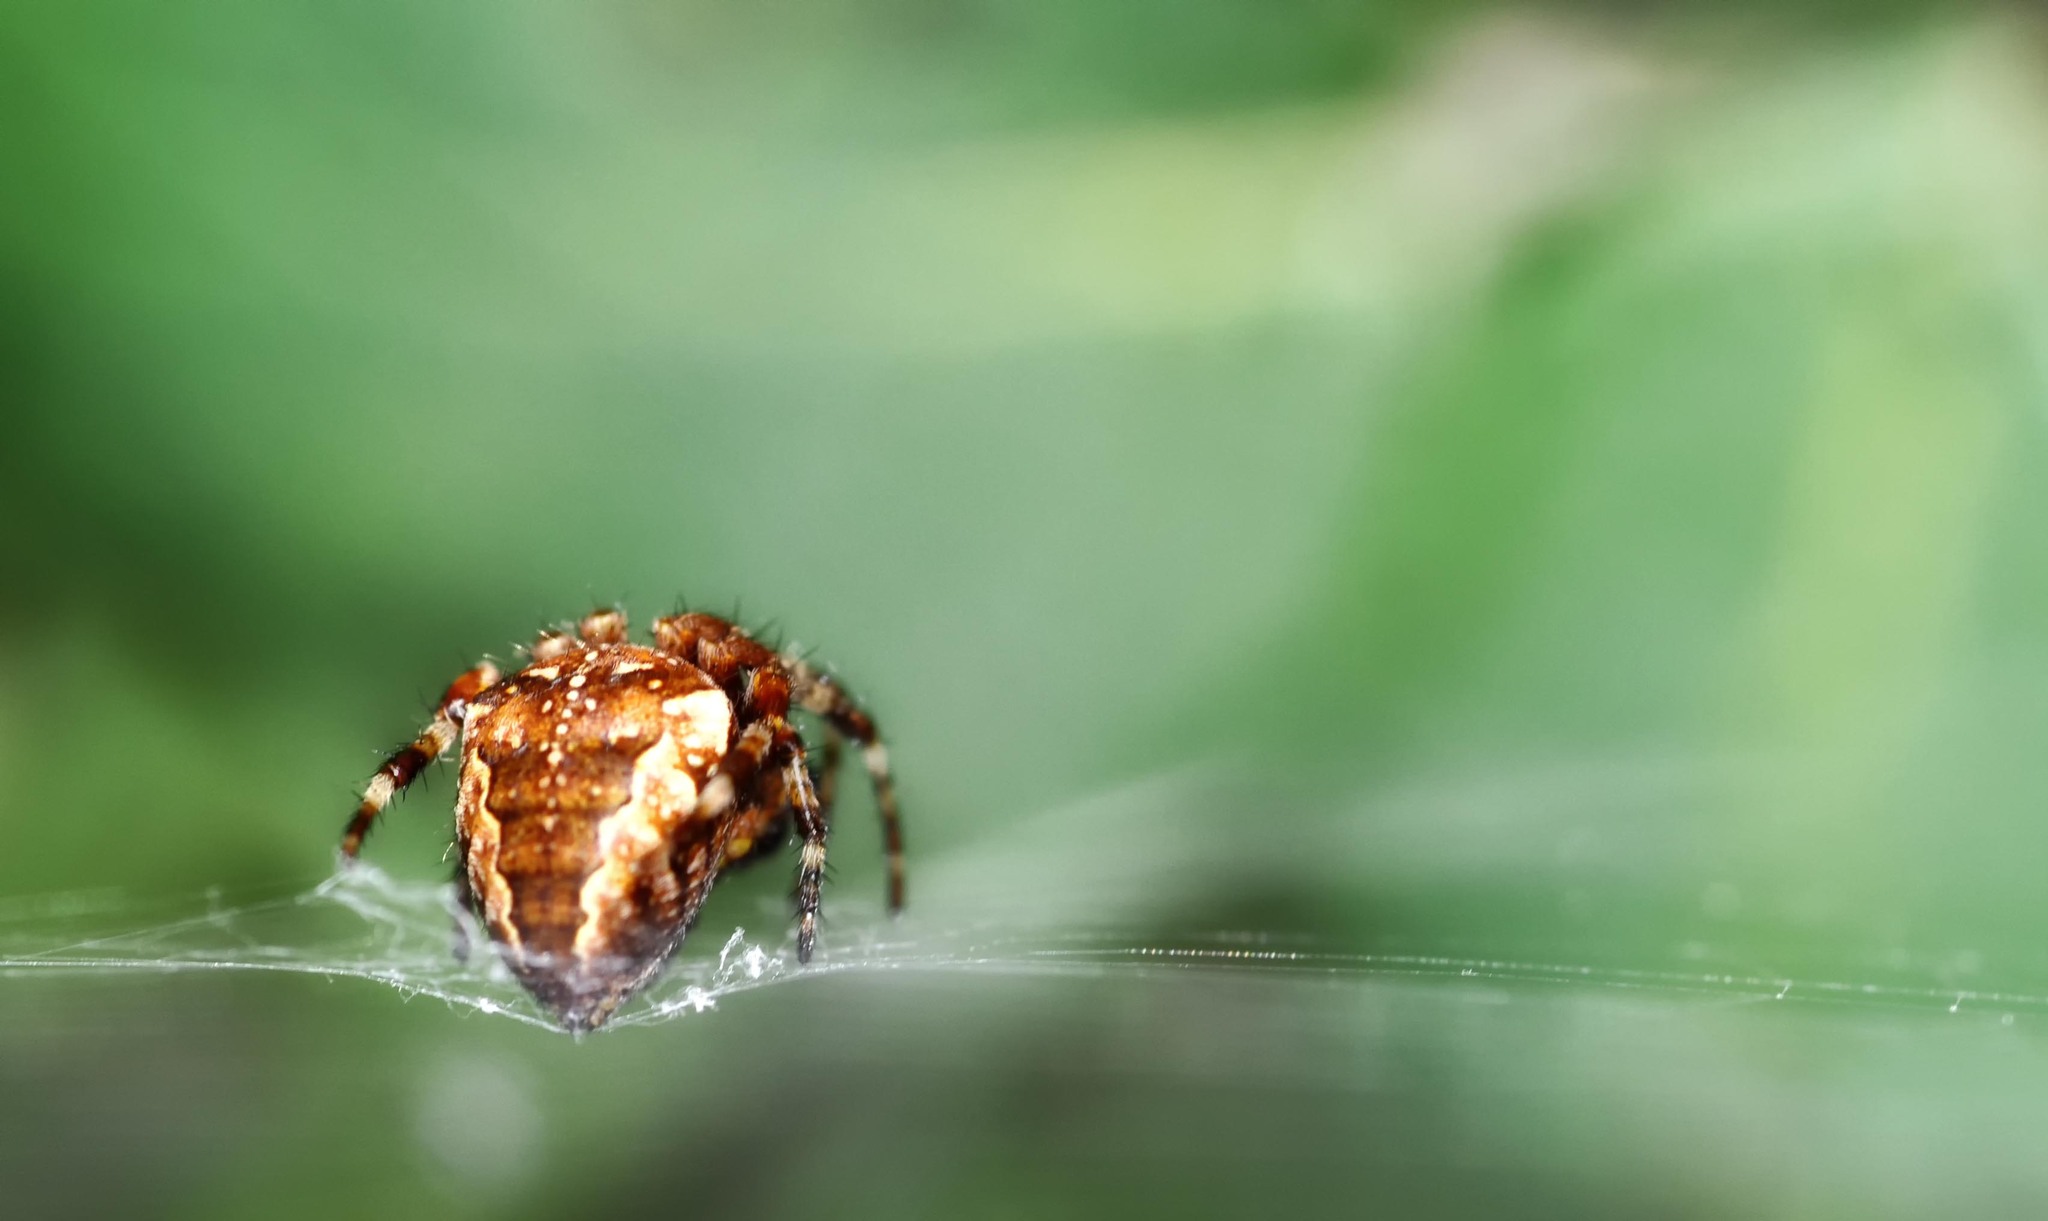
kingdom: Animalia
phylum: Arthropoda
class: Arachnida
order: Araneae
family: Araneidae
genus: Araneus
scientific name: Araneus diadematus
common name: Cross orbweaver
